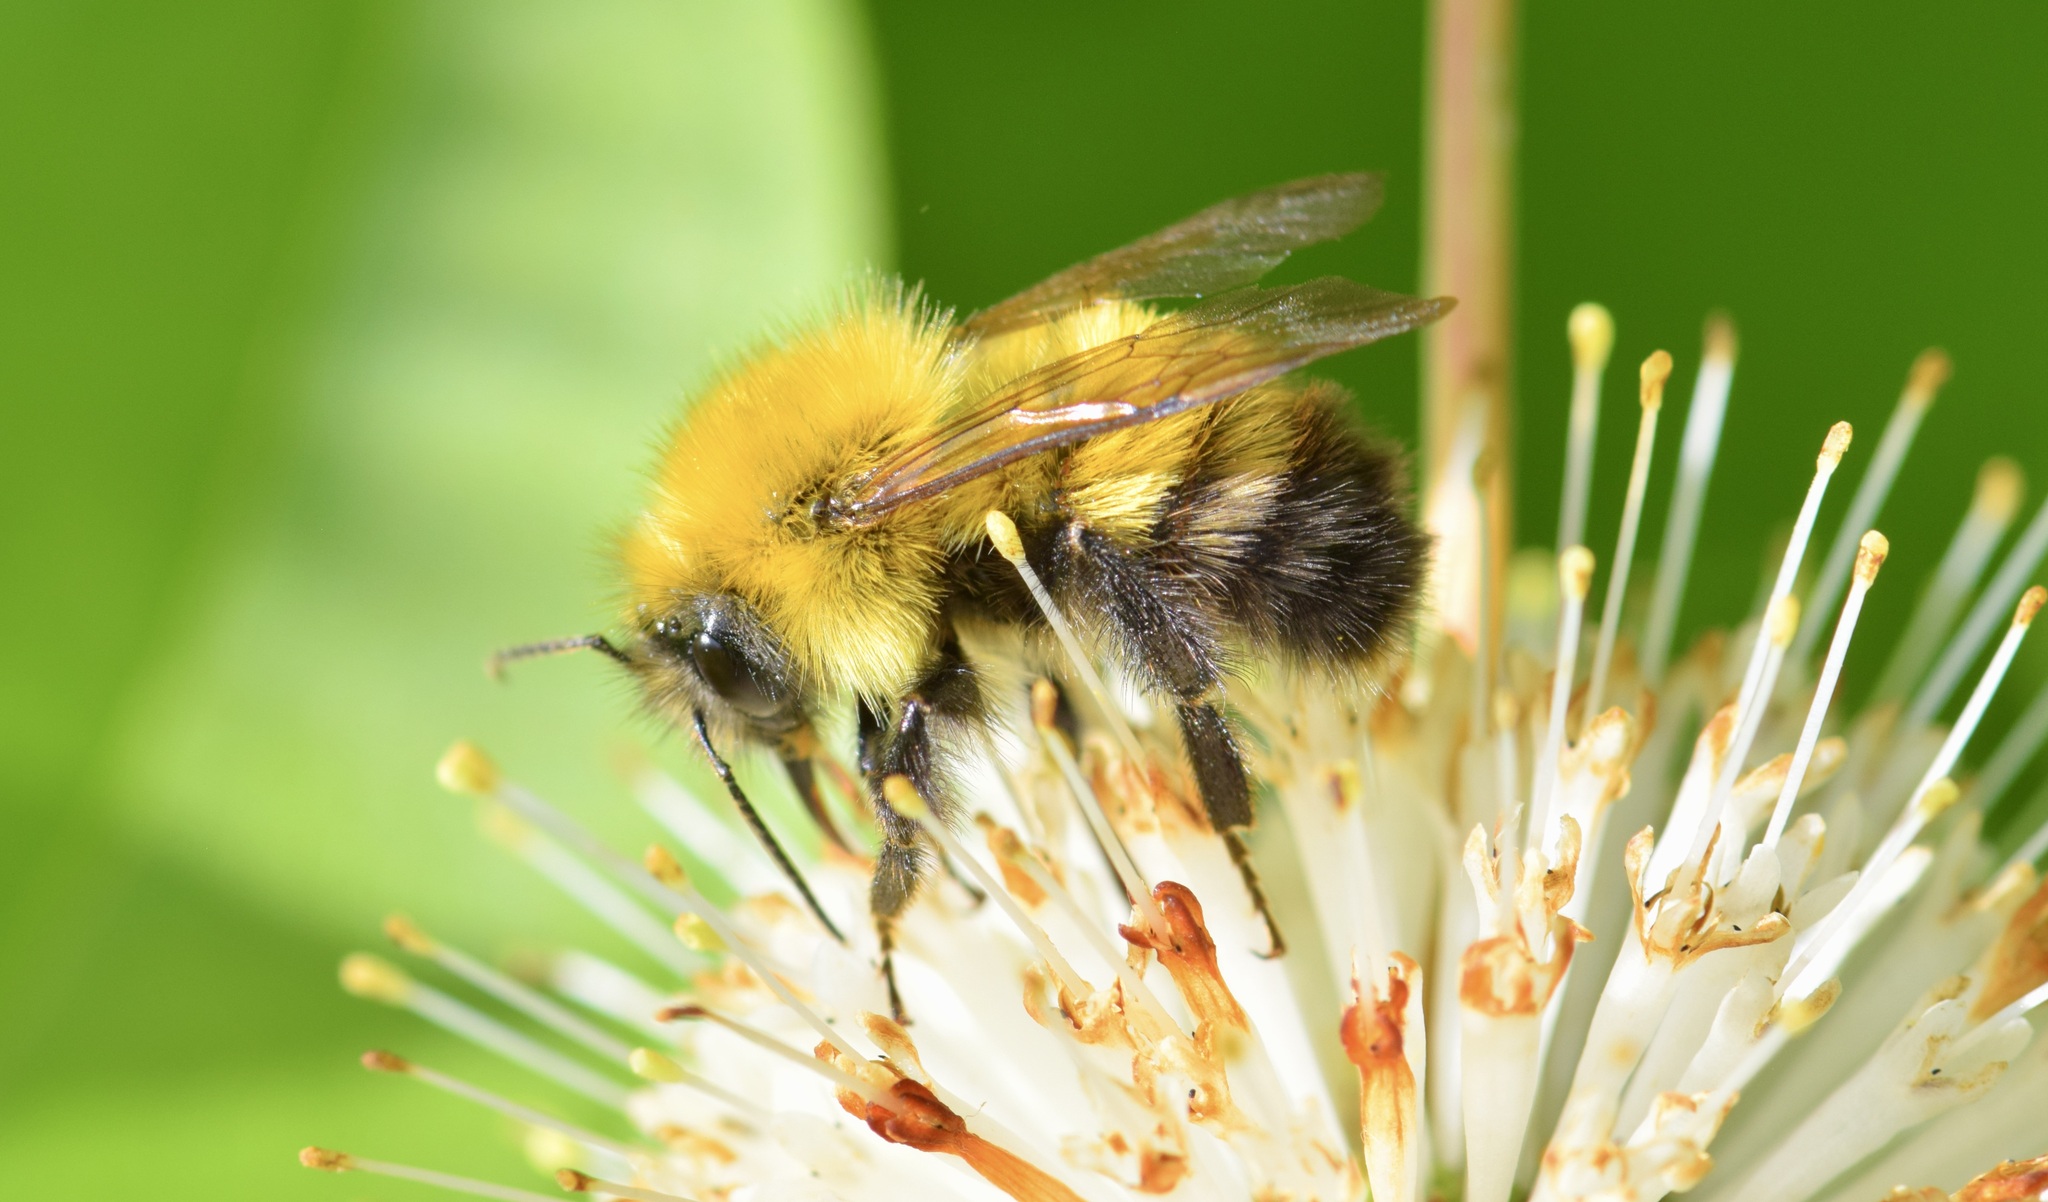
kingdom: Animalia
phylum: Arthropoda
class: Insecta
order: Hymenoptera
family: Apidae
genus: Bombus
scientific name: Bombus perplexus
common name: Confusing bumble bee
